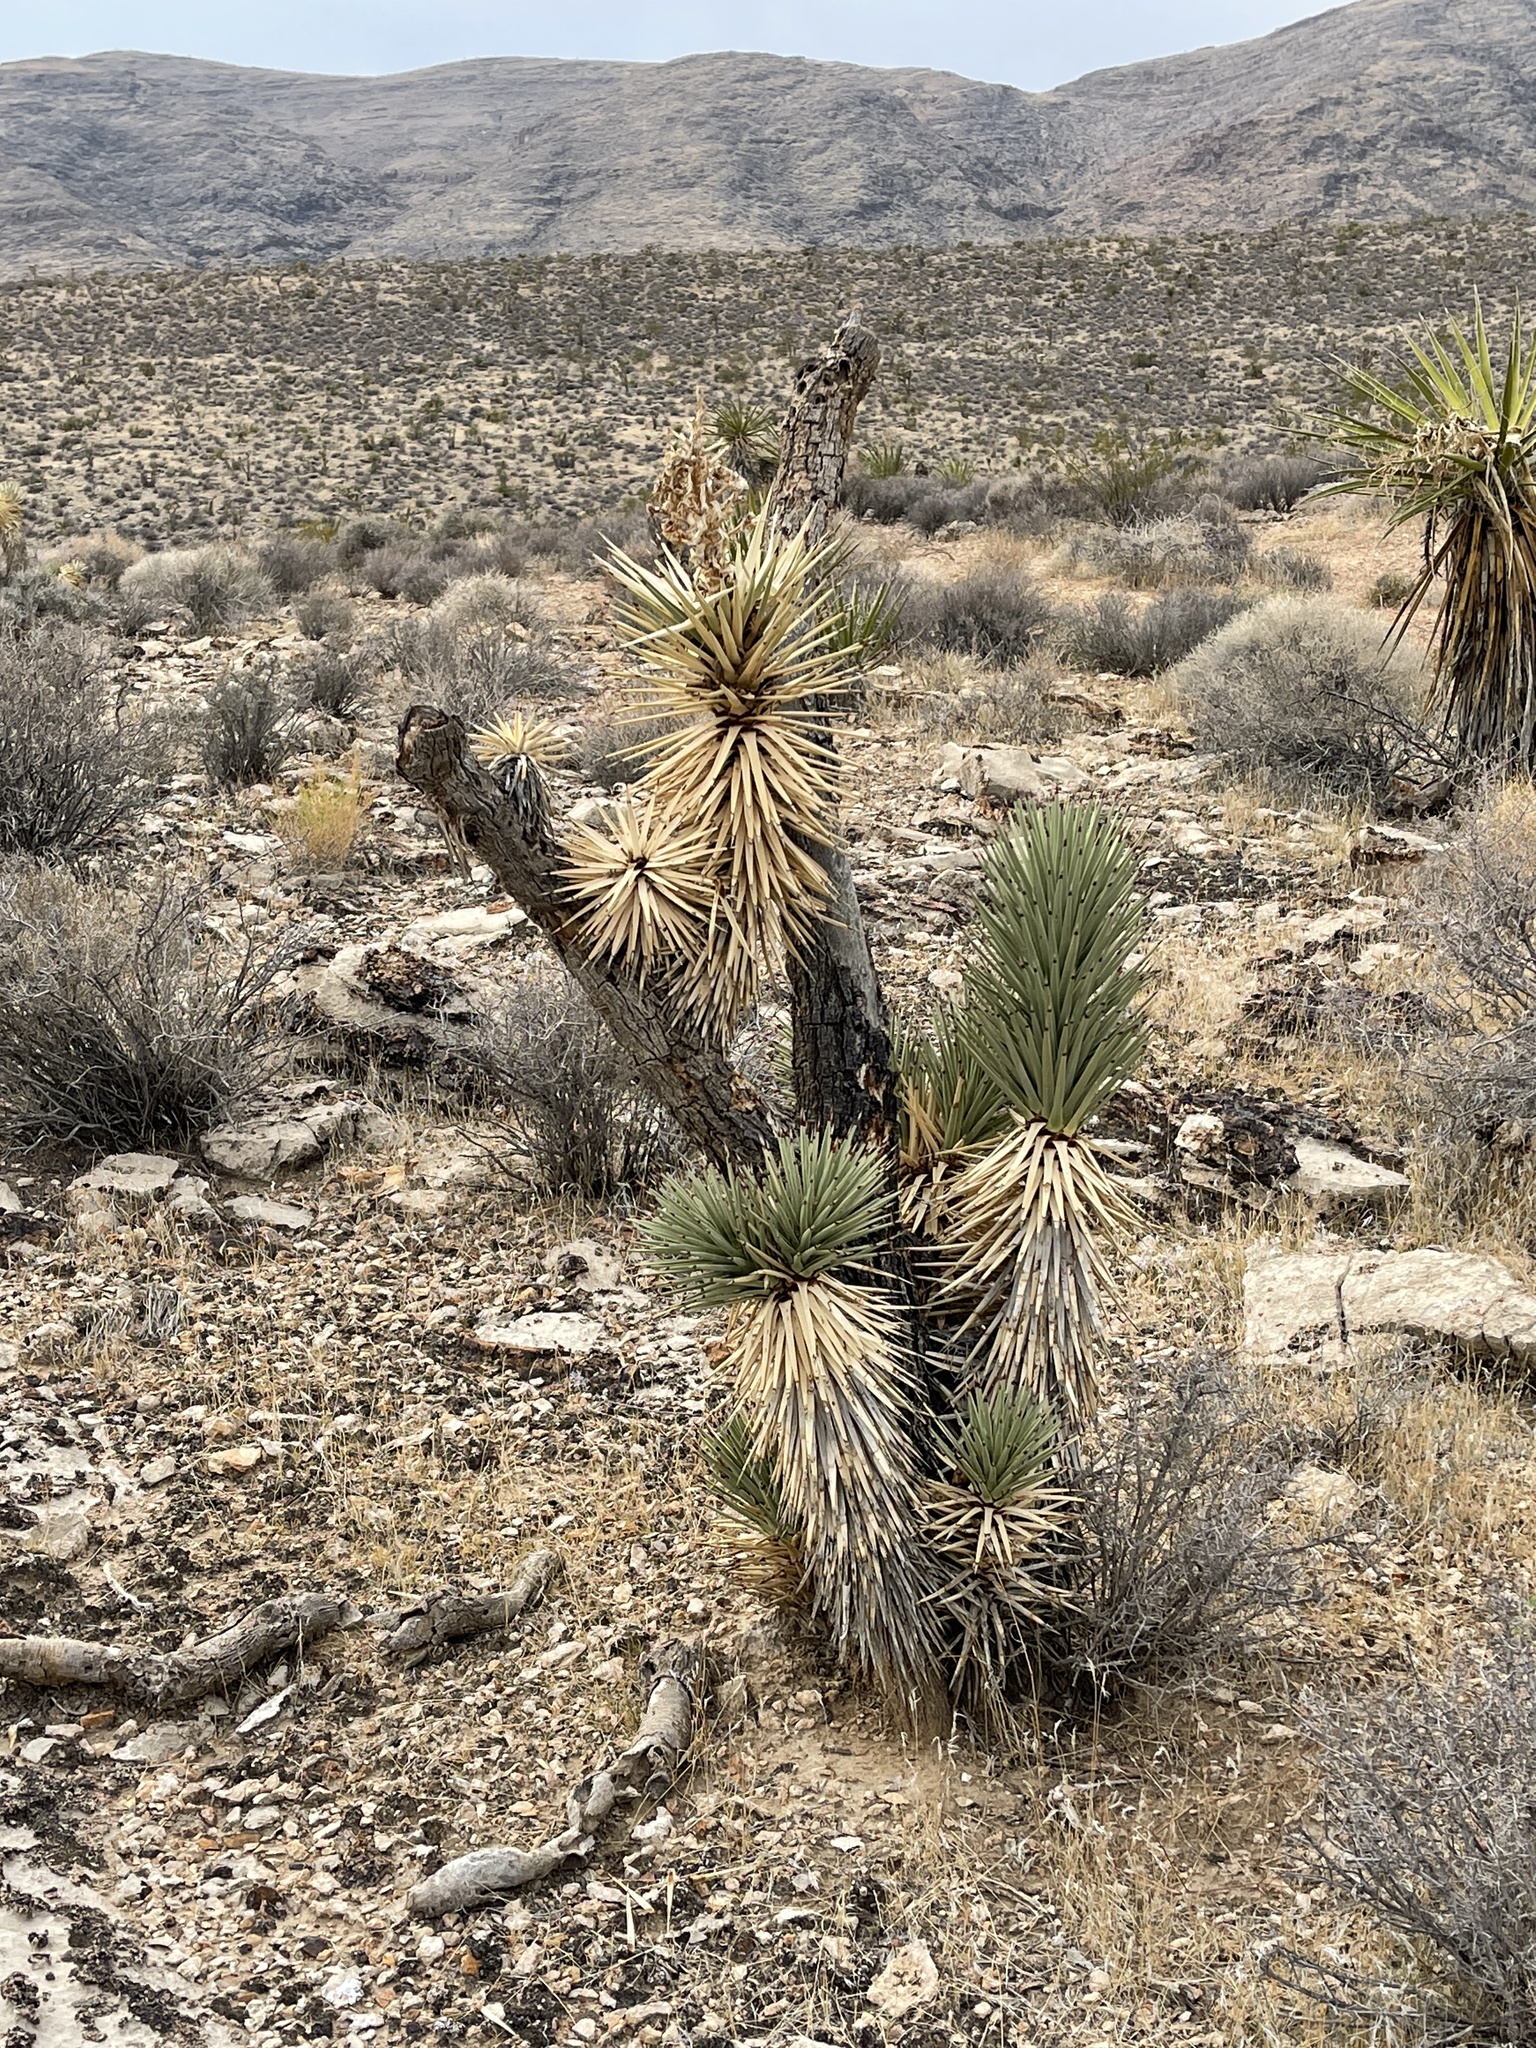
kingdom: Plantae
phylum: Tracheophyta
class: Liliopsida
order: Asparagales
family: Asparagaceae
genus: Yucca
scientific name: Yucca brevifolia
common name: Joshua tree
